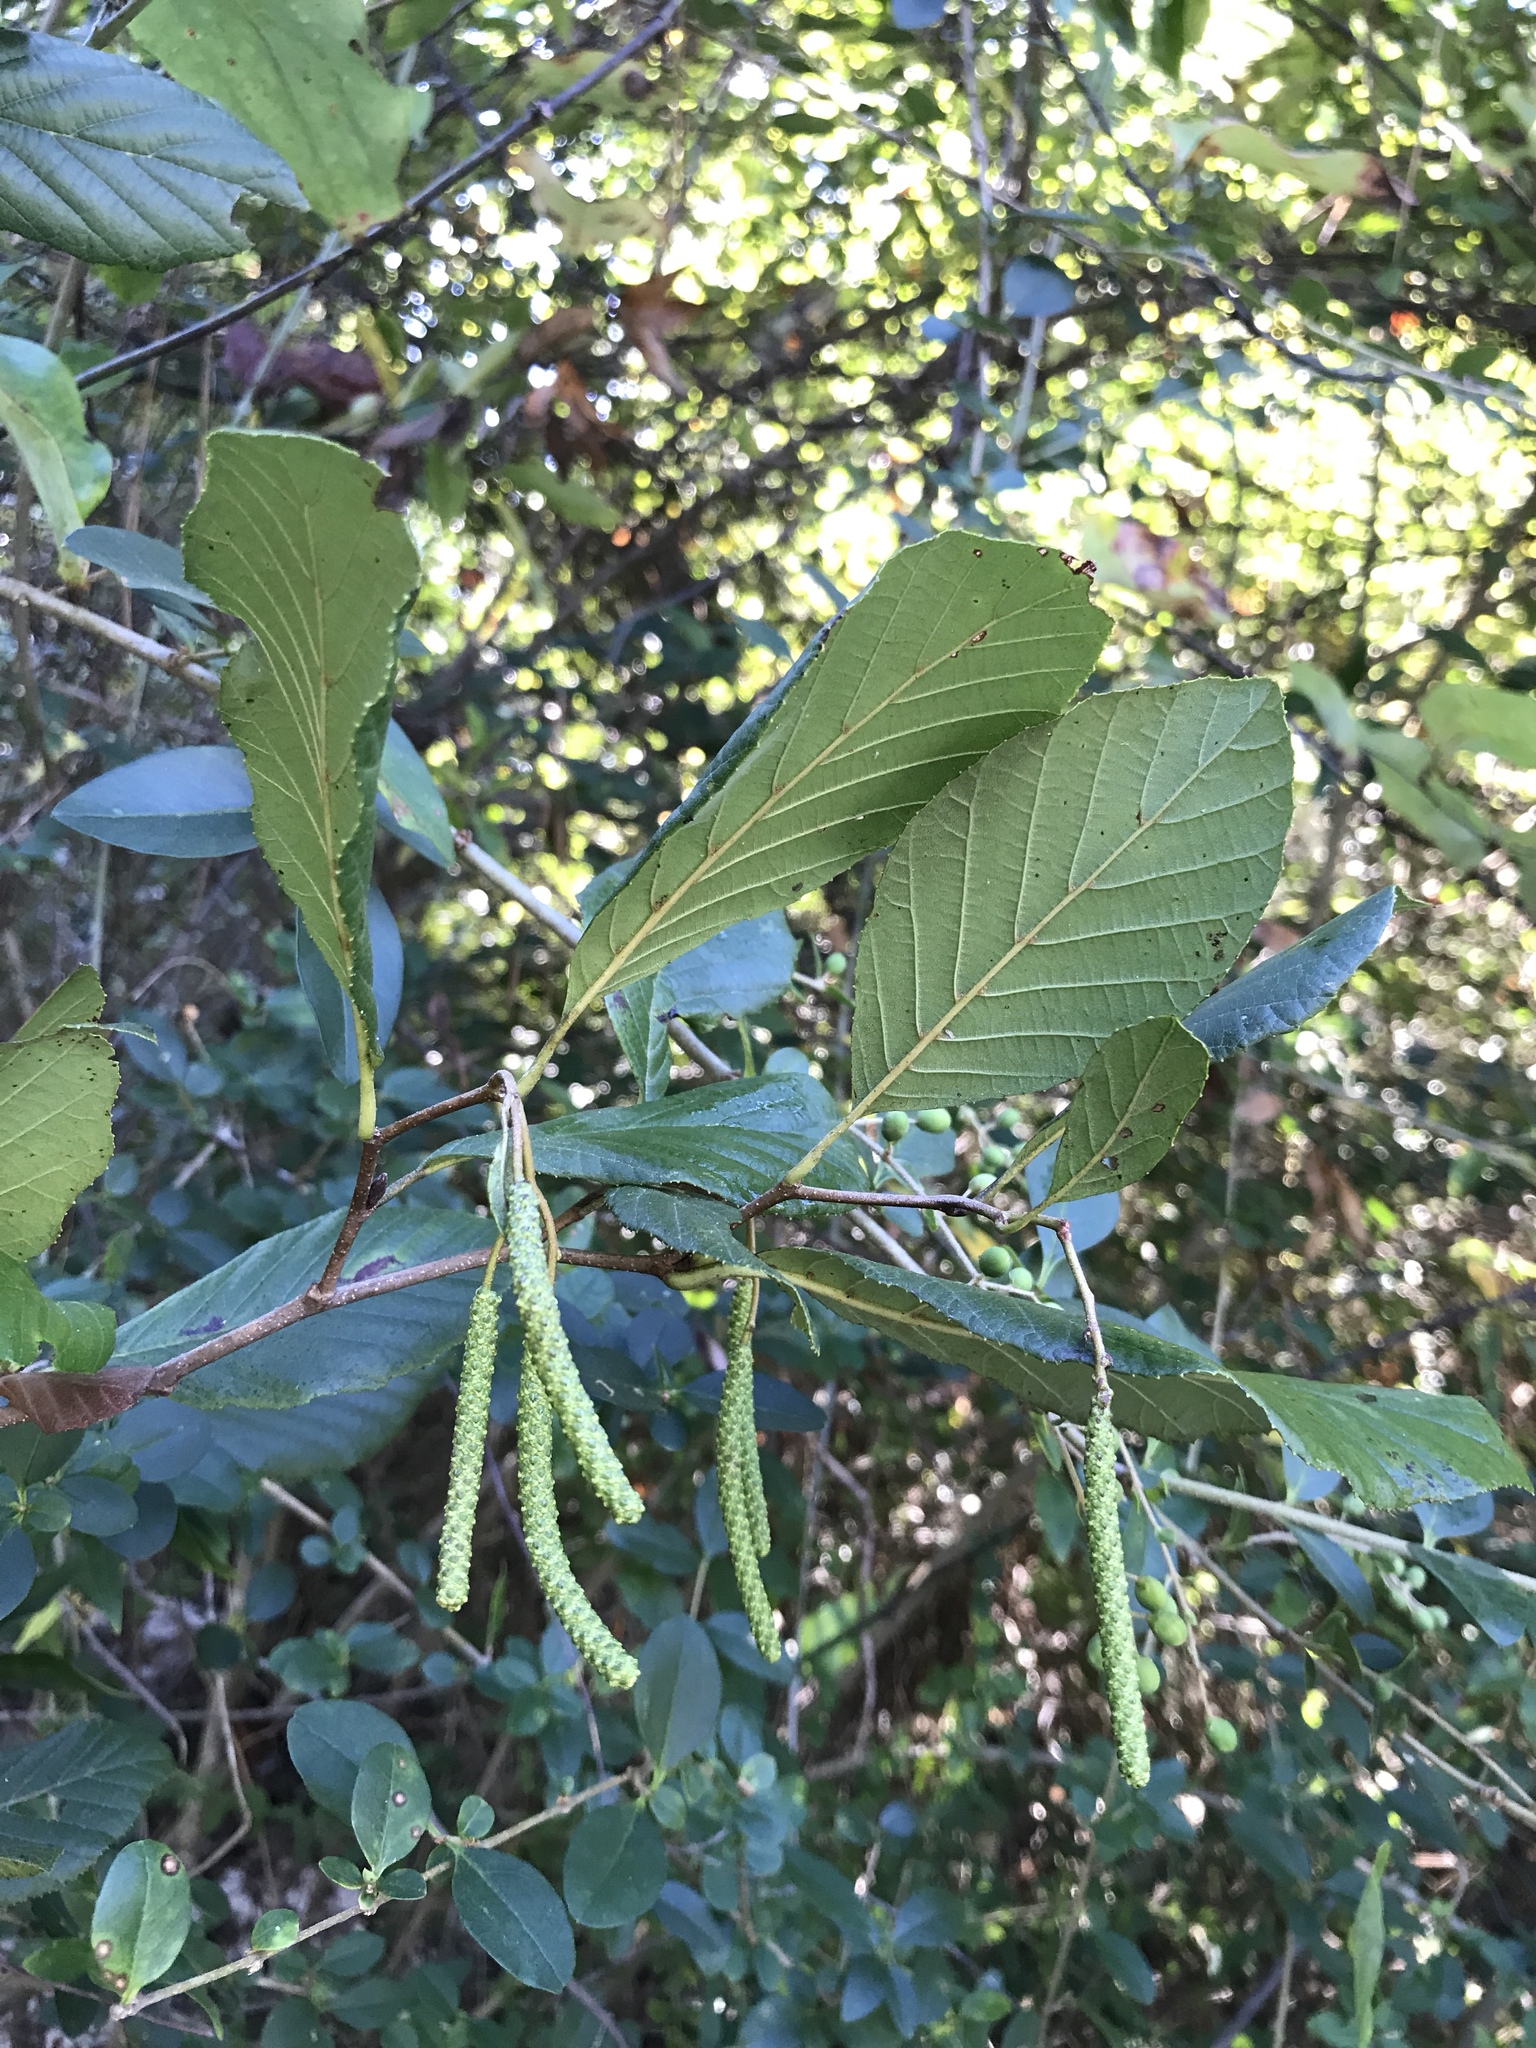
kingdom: Plantae
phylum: Tracheophyta
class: Magnoliopsida
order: Fagales
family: Betulaceae
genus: Alnus
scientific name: Alnus serrulata
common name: Hazel alder
